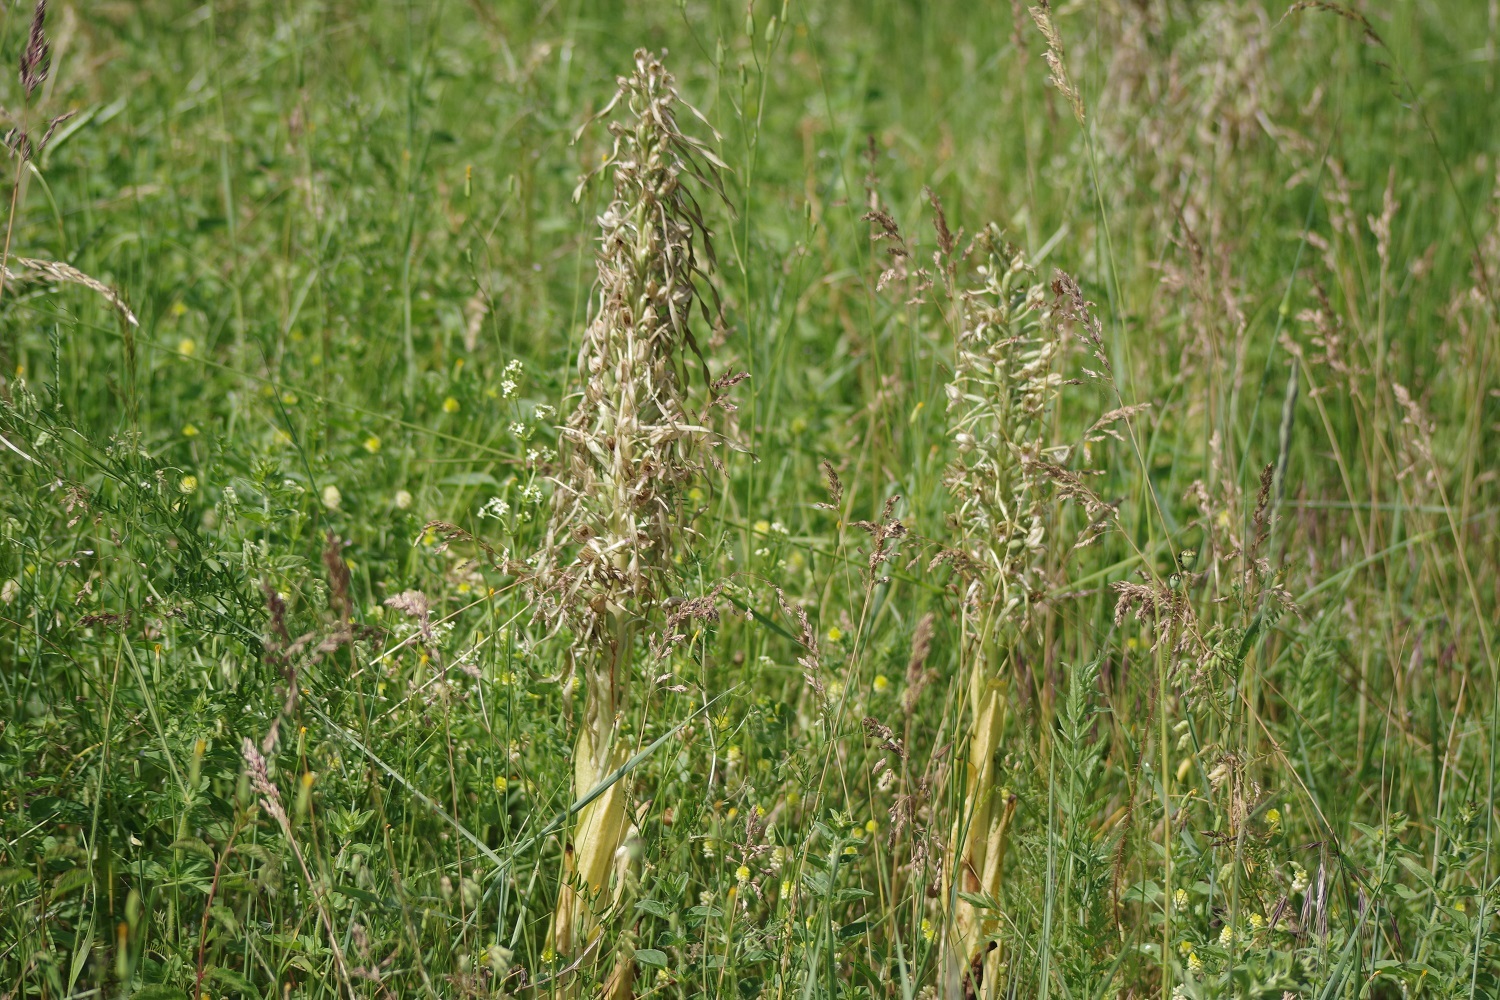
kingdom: Plantae
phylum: Tracheophyta
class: Liliopsida
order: Asparagales
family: Orchidaceae
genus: Himantoglossum
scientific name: Himantoglossum hircinum
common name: Lizard orchid
